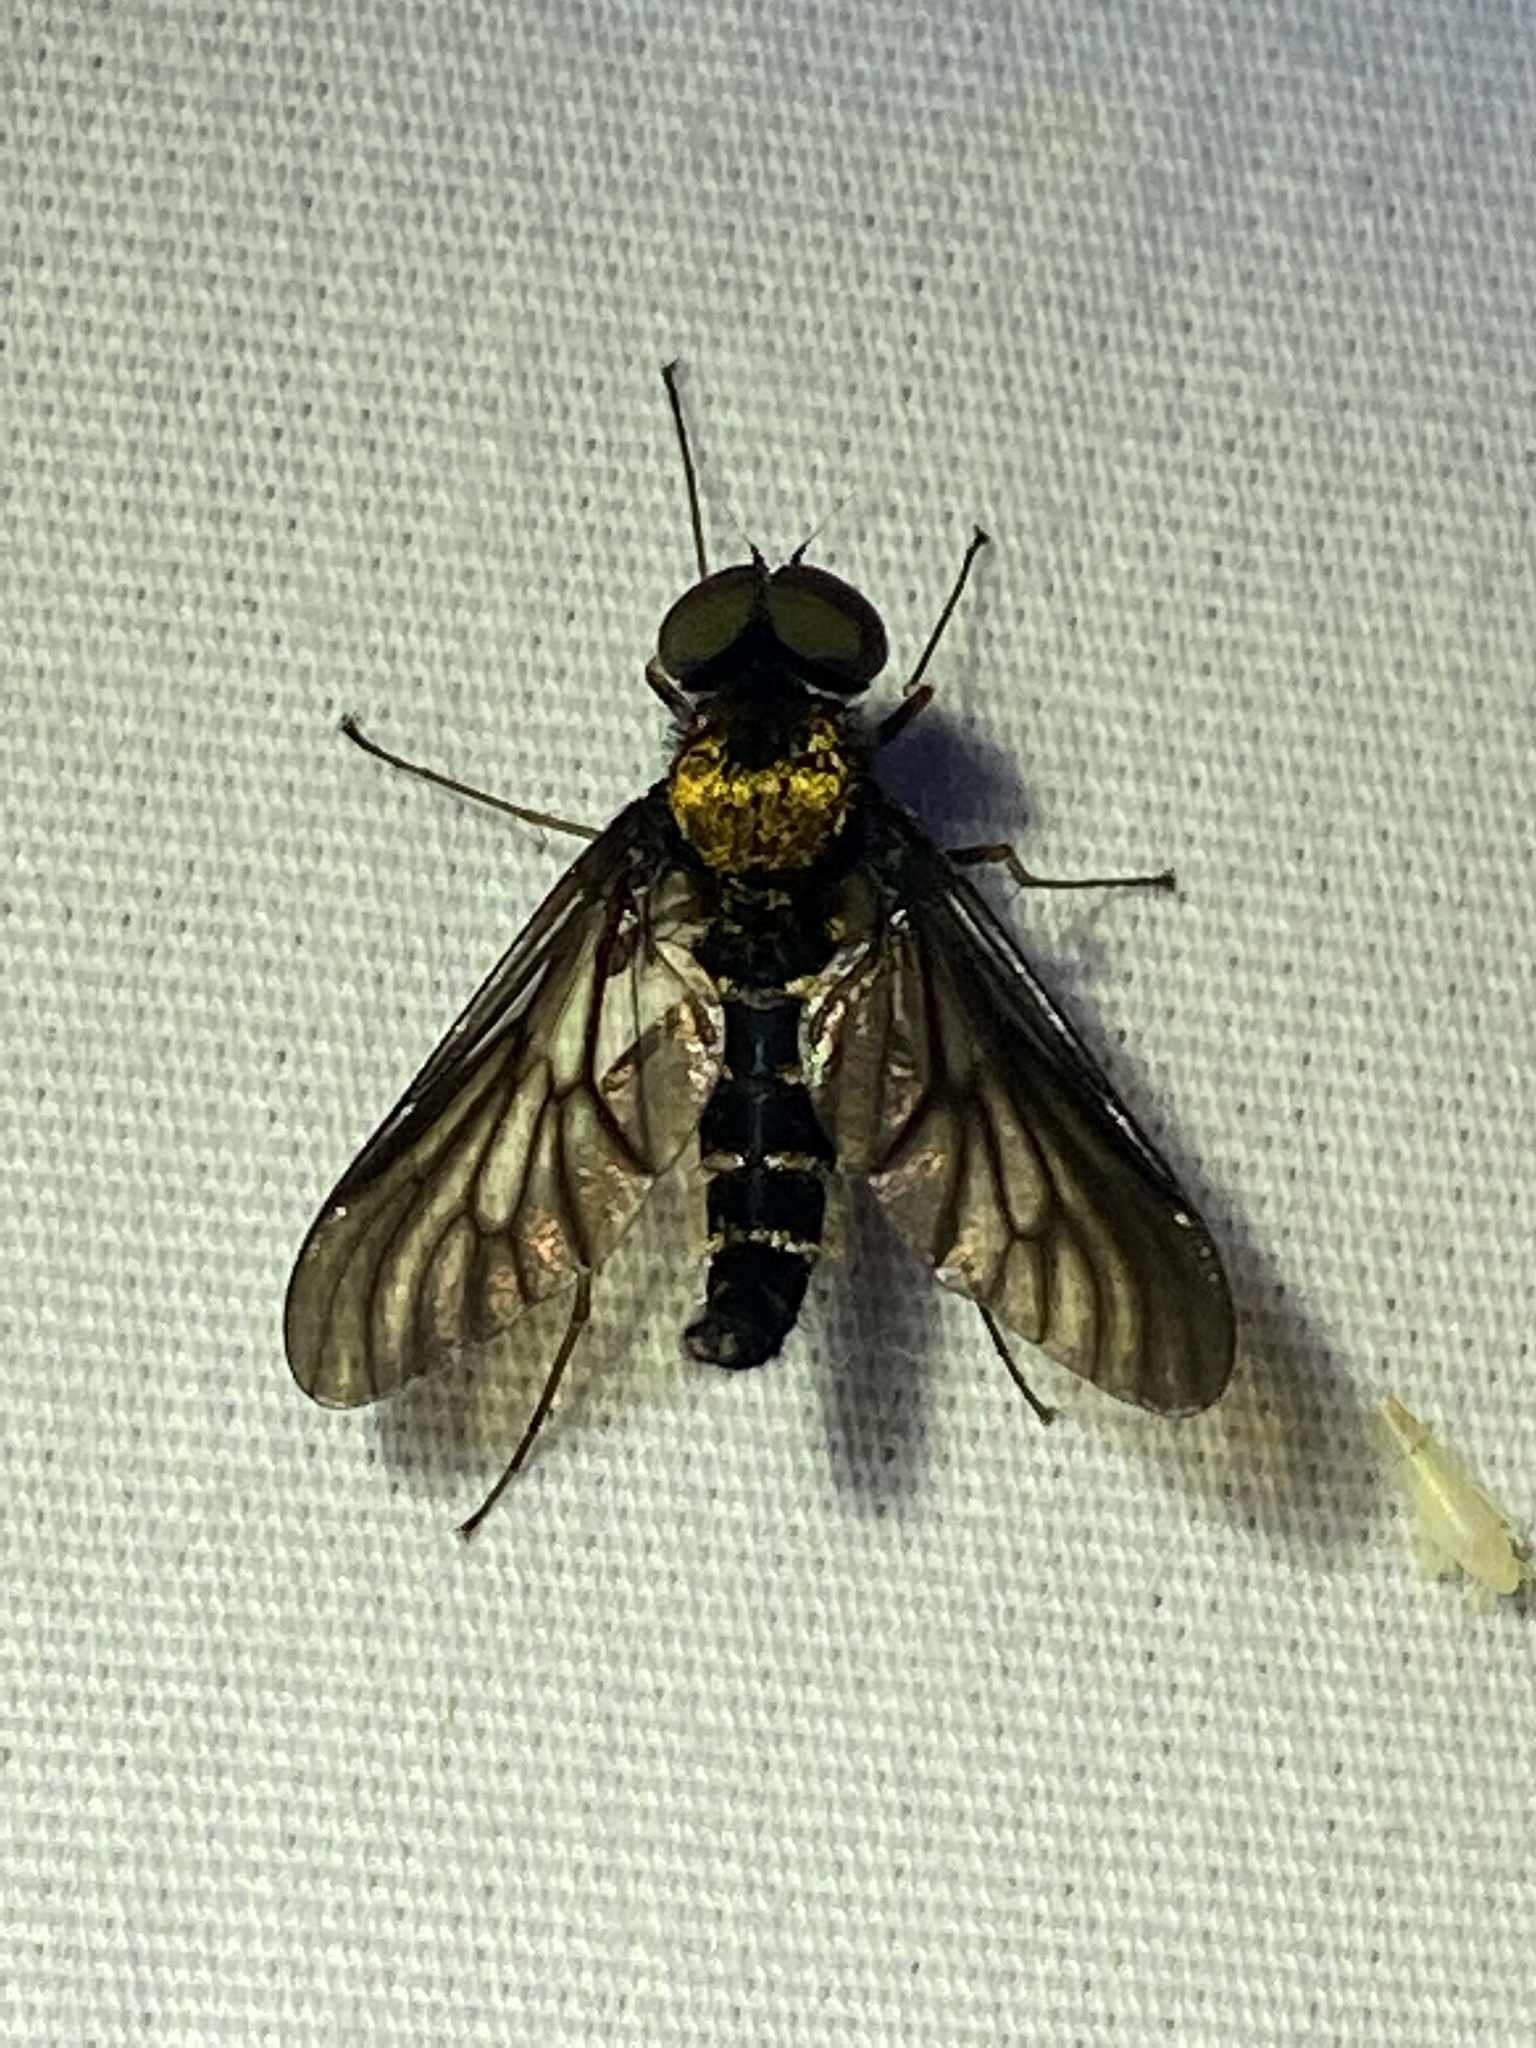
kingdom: Animalia
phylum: Arthropoda
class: Insecta
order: Diptera
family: Rhagionidae
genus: Chrysopilus
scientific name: Chrysopilus thoracicus
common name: Golden-backed snipe fly
